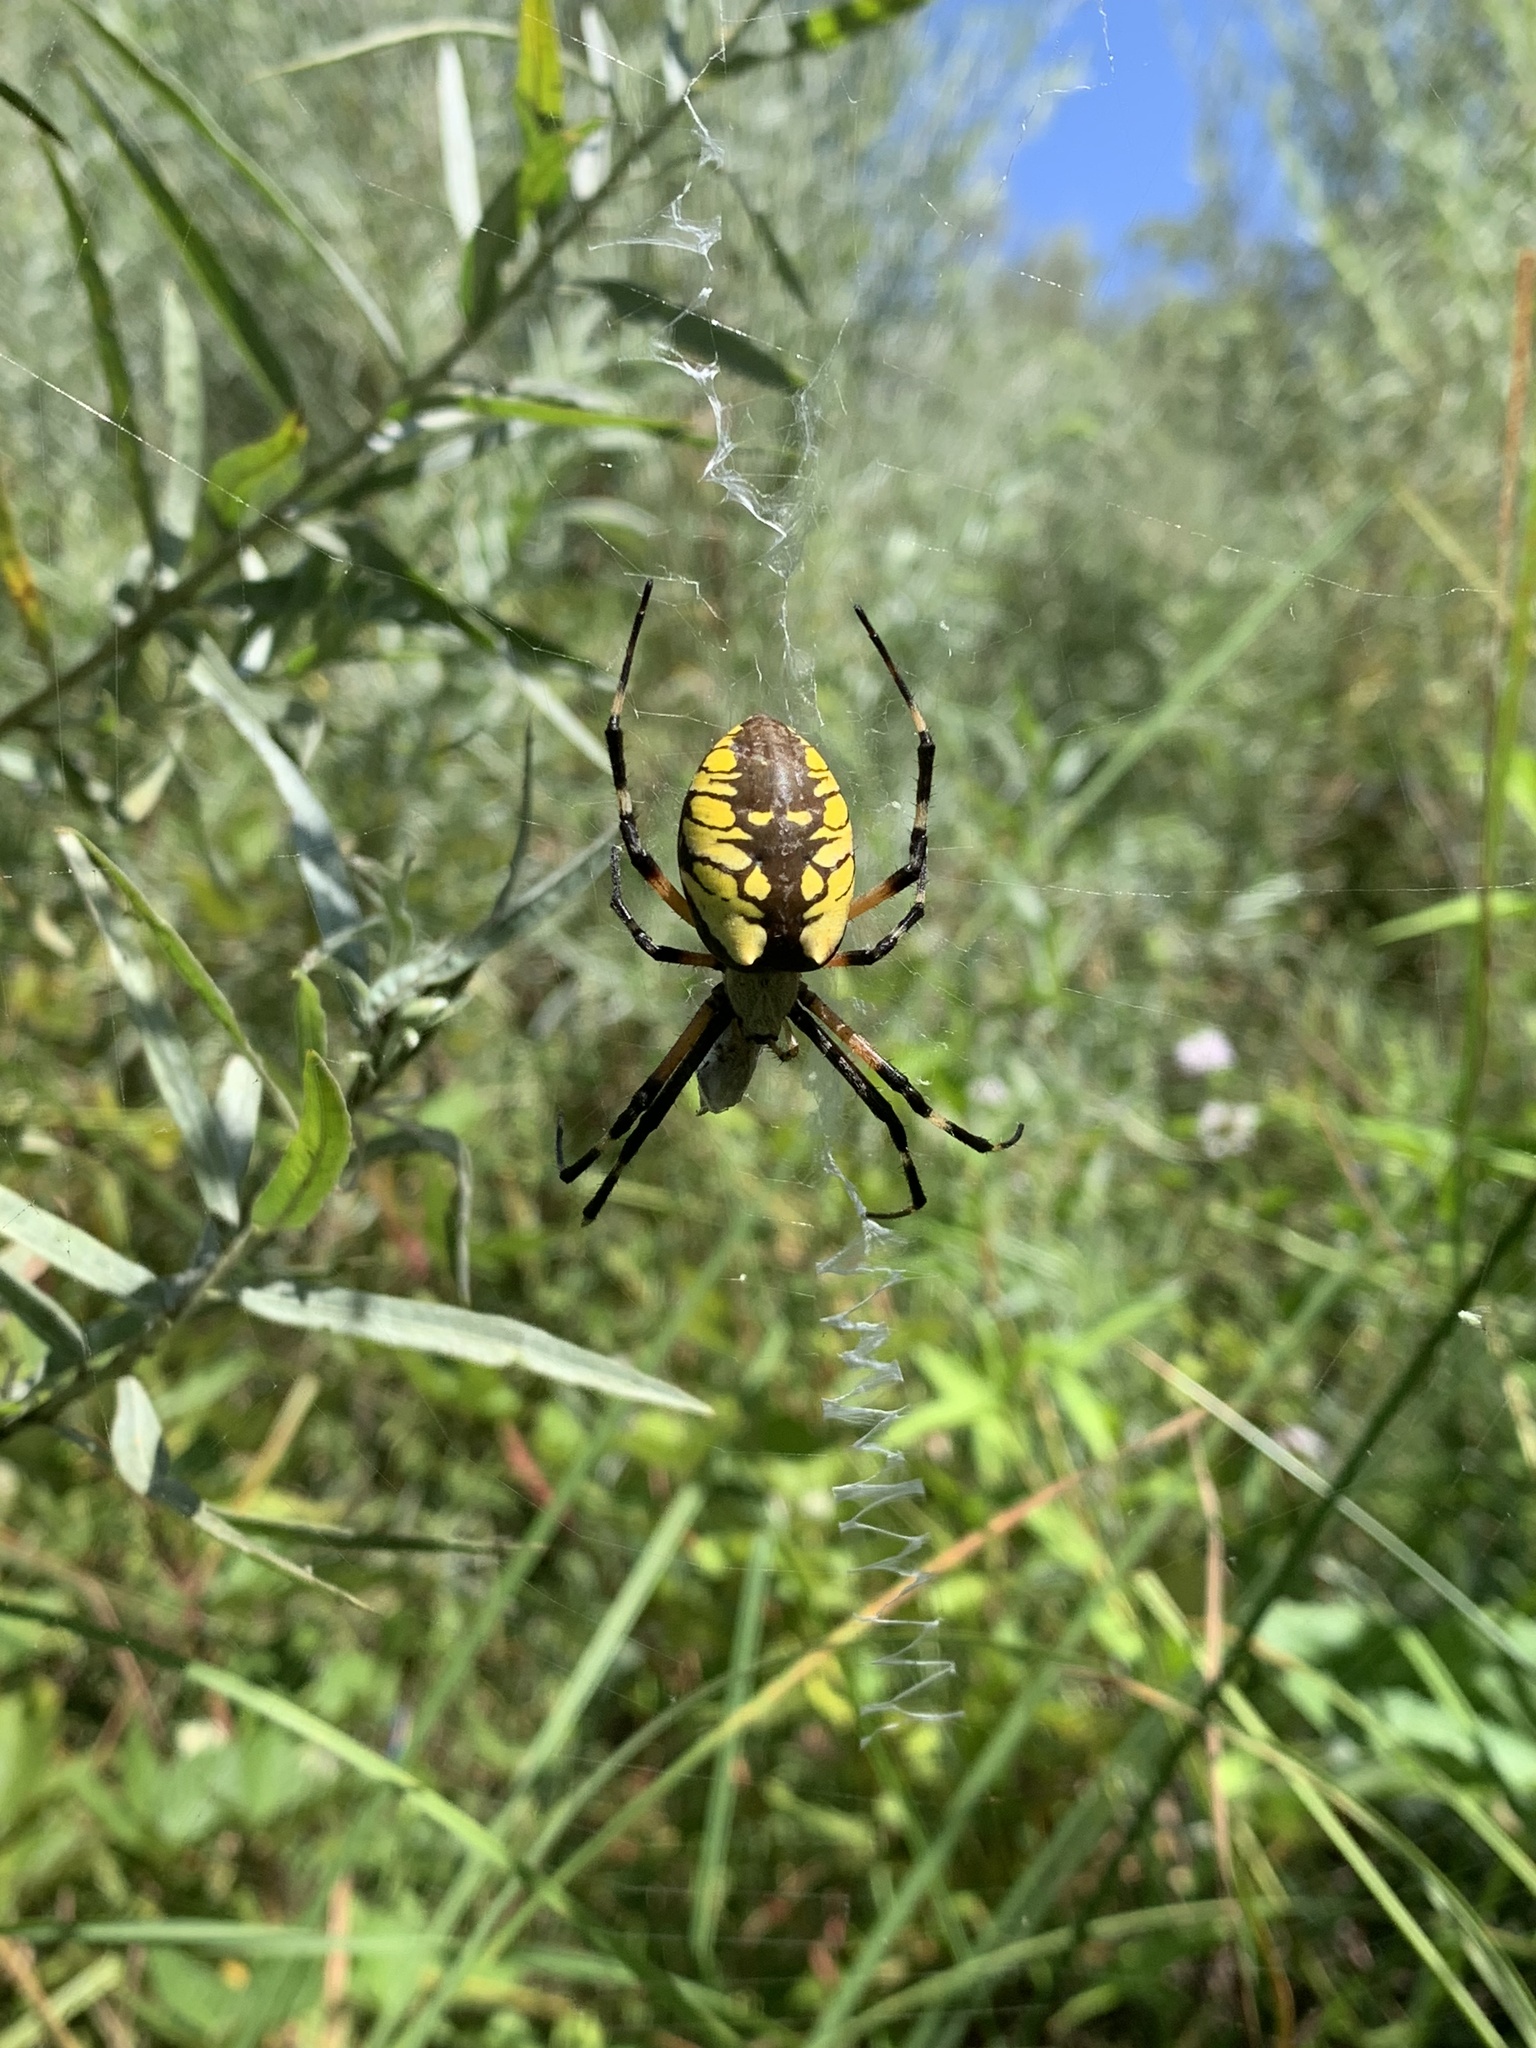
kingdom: Animalia
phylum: Arthropoda
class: Arachnida
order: Araneae
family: Araneidae
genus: Argiope
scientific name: Argiope aurantia
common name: Orb weavers
